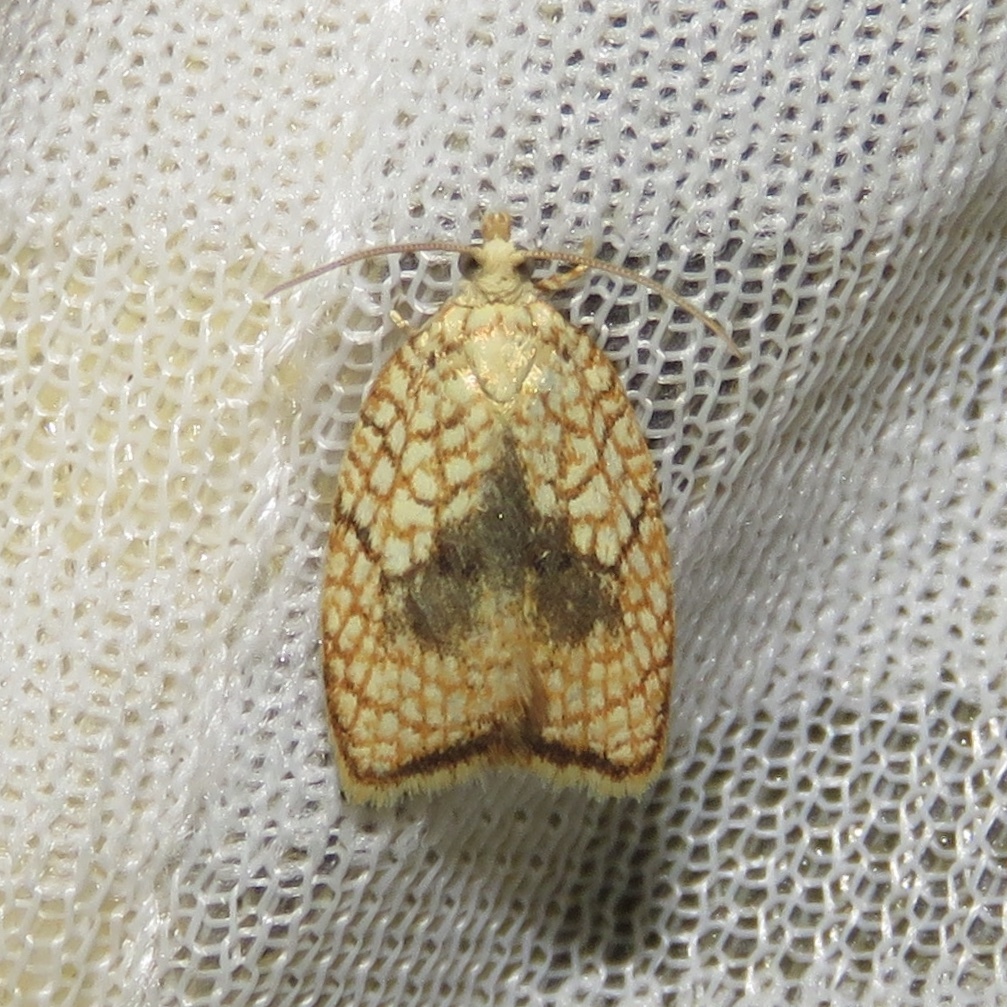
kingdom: Animalia
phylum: Arthropoda
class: Insecta
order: Lepidoptera
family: Tortricidae
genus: Acleris
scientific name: Acleris forsskaleana
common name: Maple button
